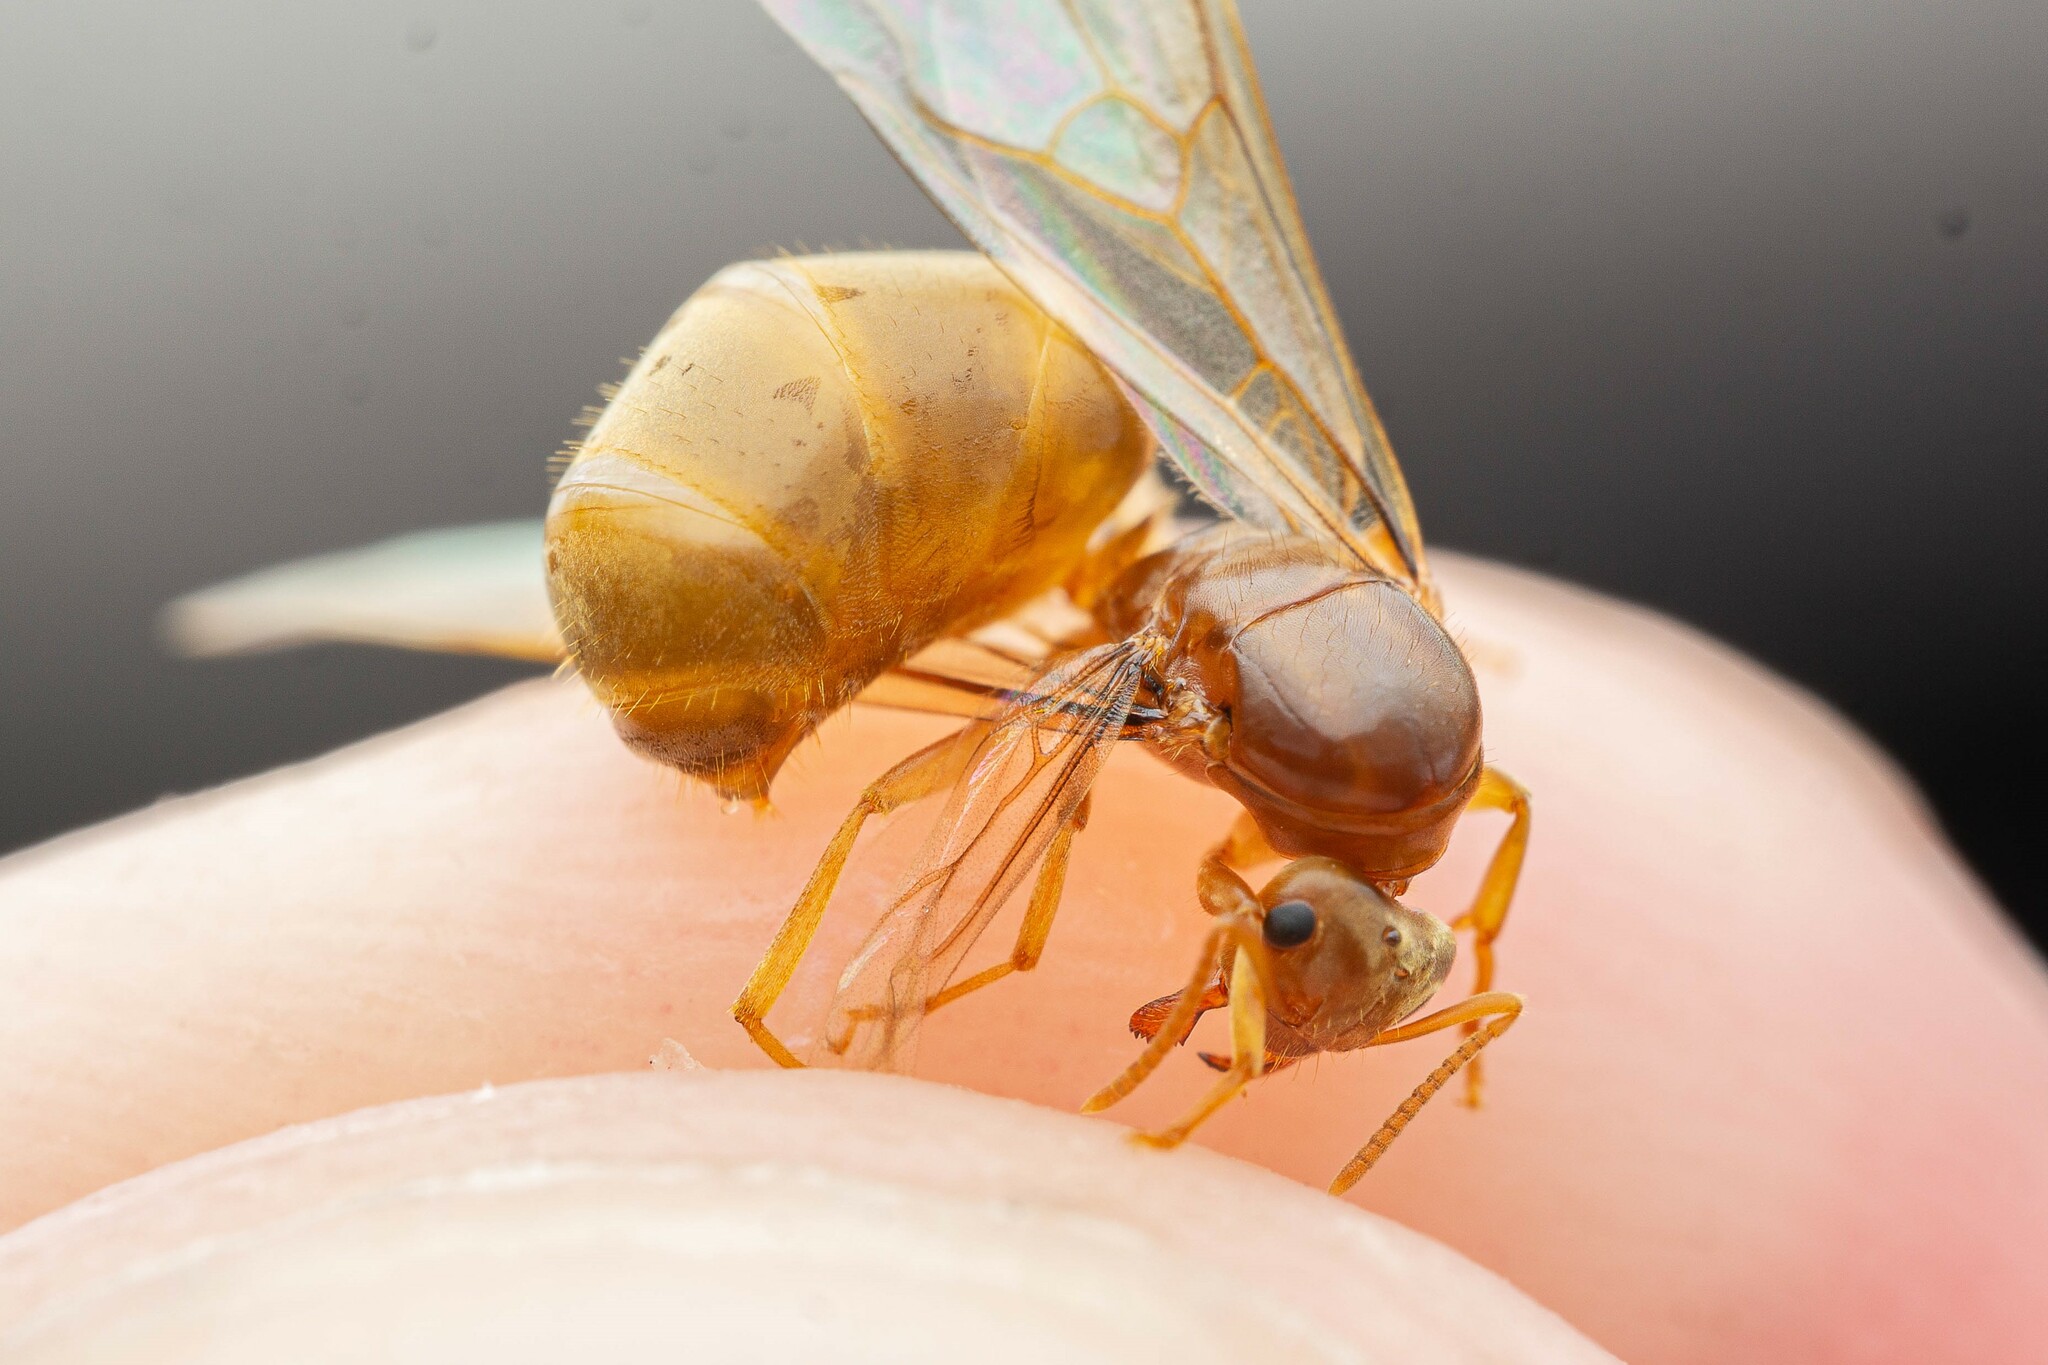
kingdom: Animalia
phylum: Arthropoda
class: Insecta
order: Hymenoptera
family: Formicidae
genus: Lasius
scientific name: Lasius sitiens
